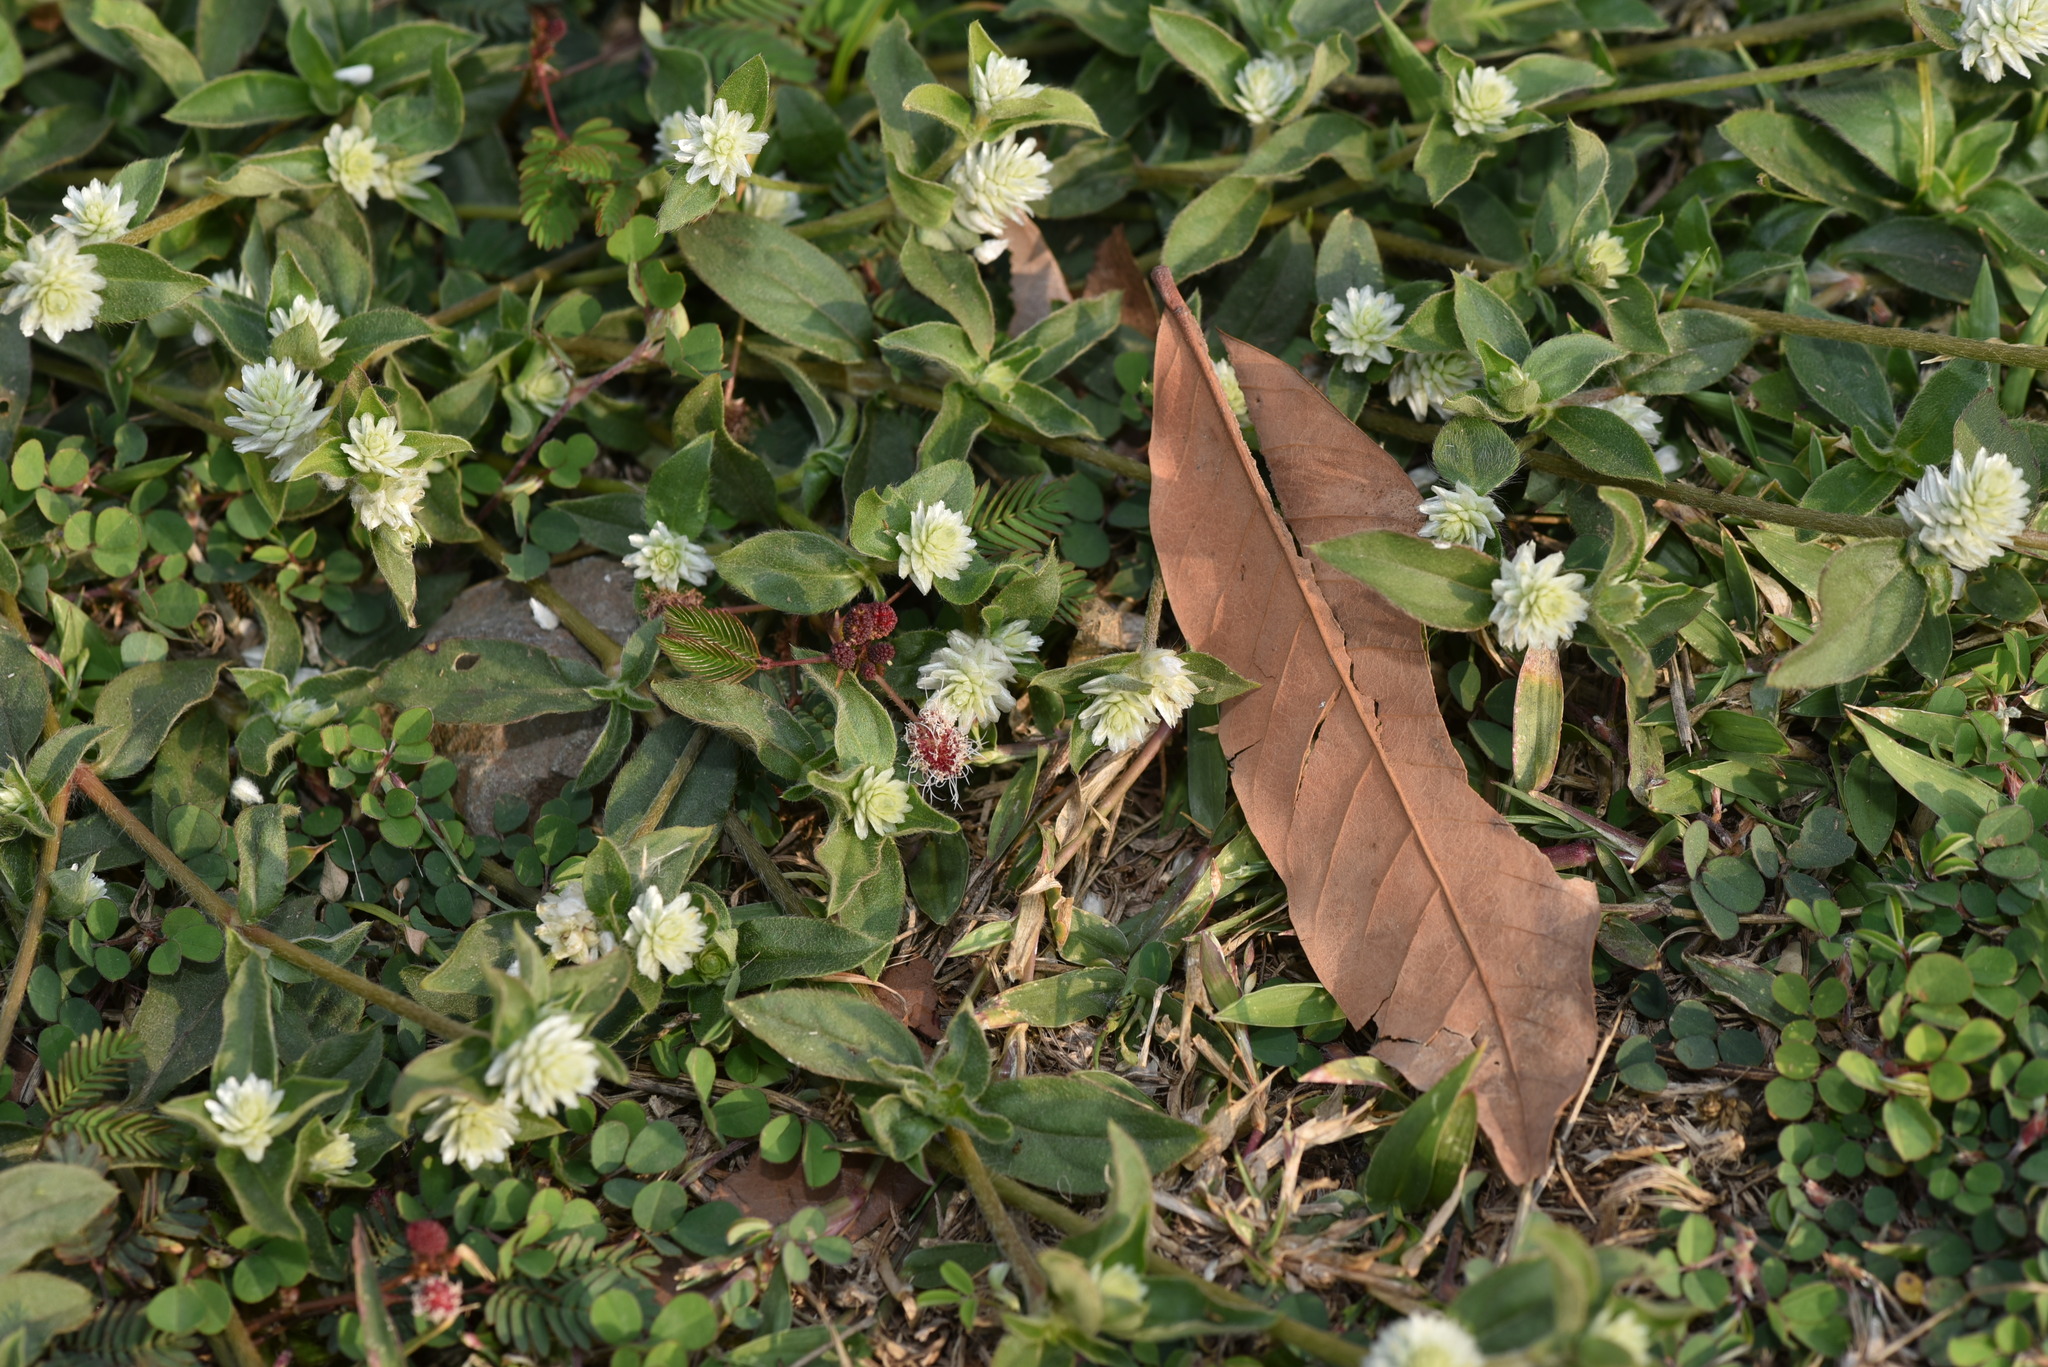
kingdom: Plantae
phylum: Tracheophyta
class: Magnoliopsida
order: Caryophyllales
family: Amaranthaceae
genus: Gomphrena
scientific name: Gomphrena serrata
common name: Arrasa con todo
